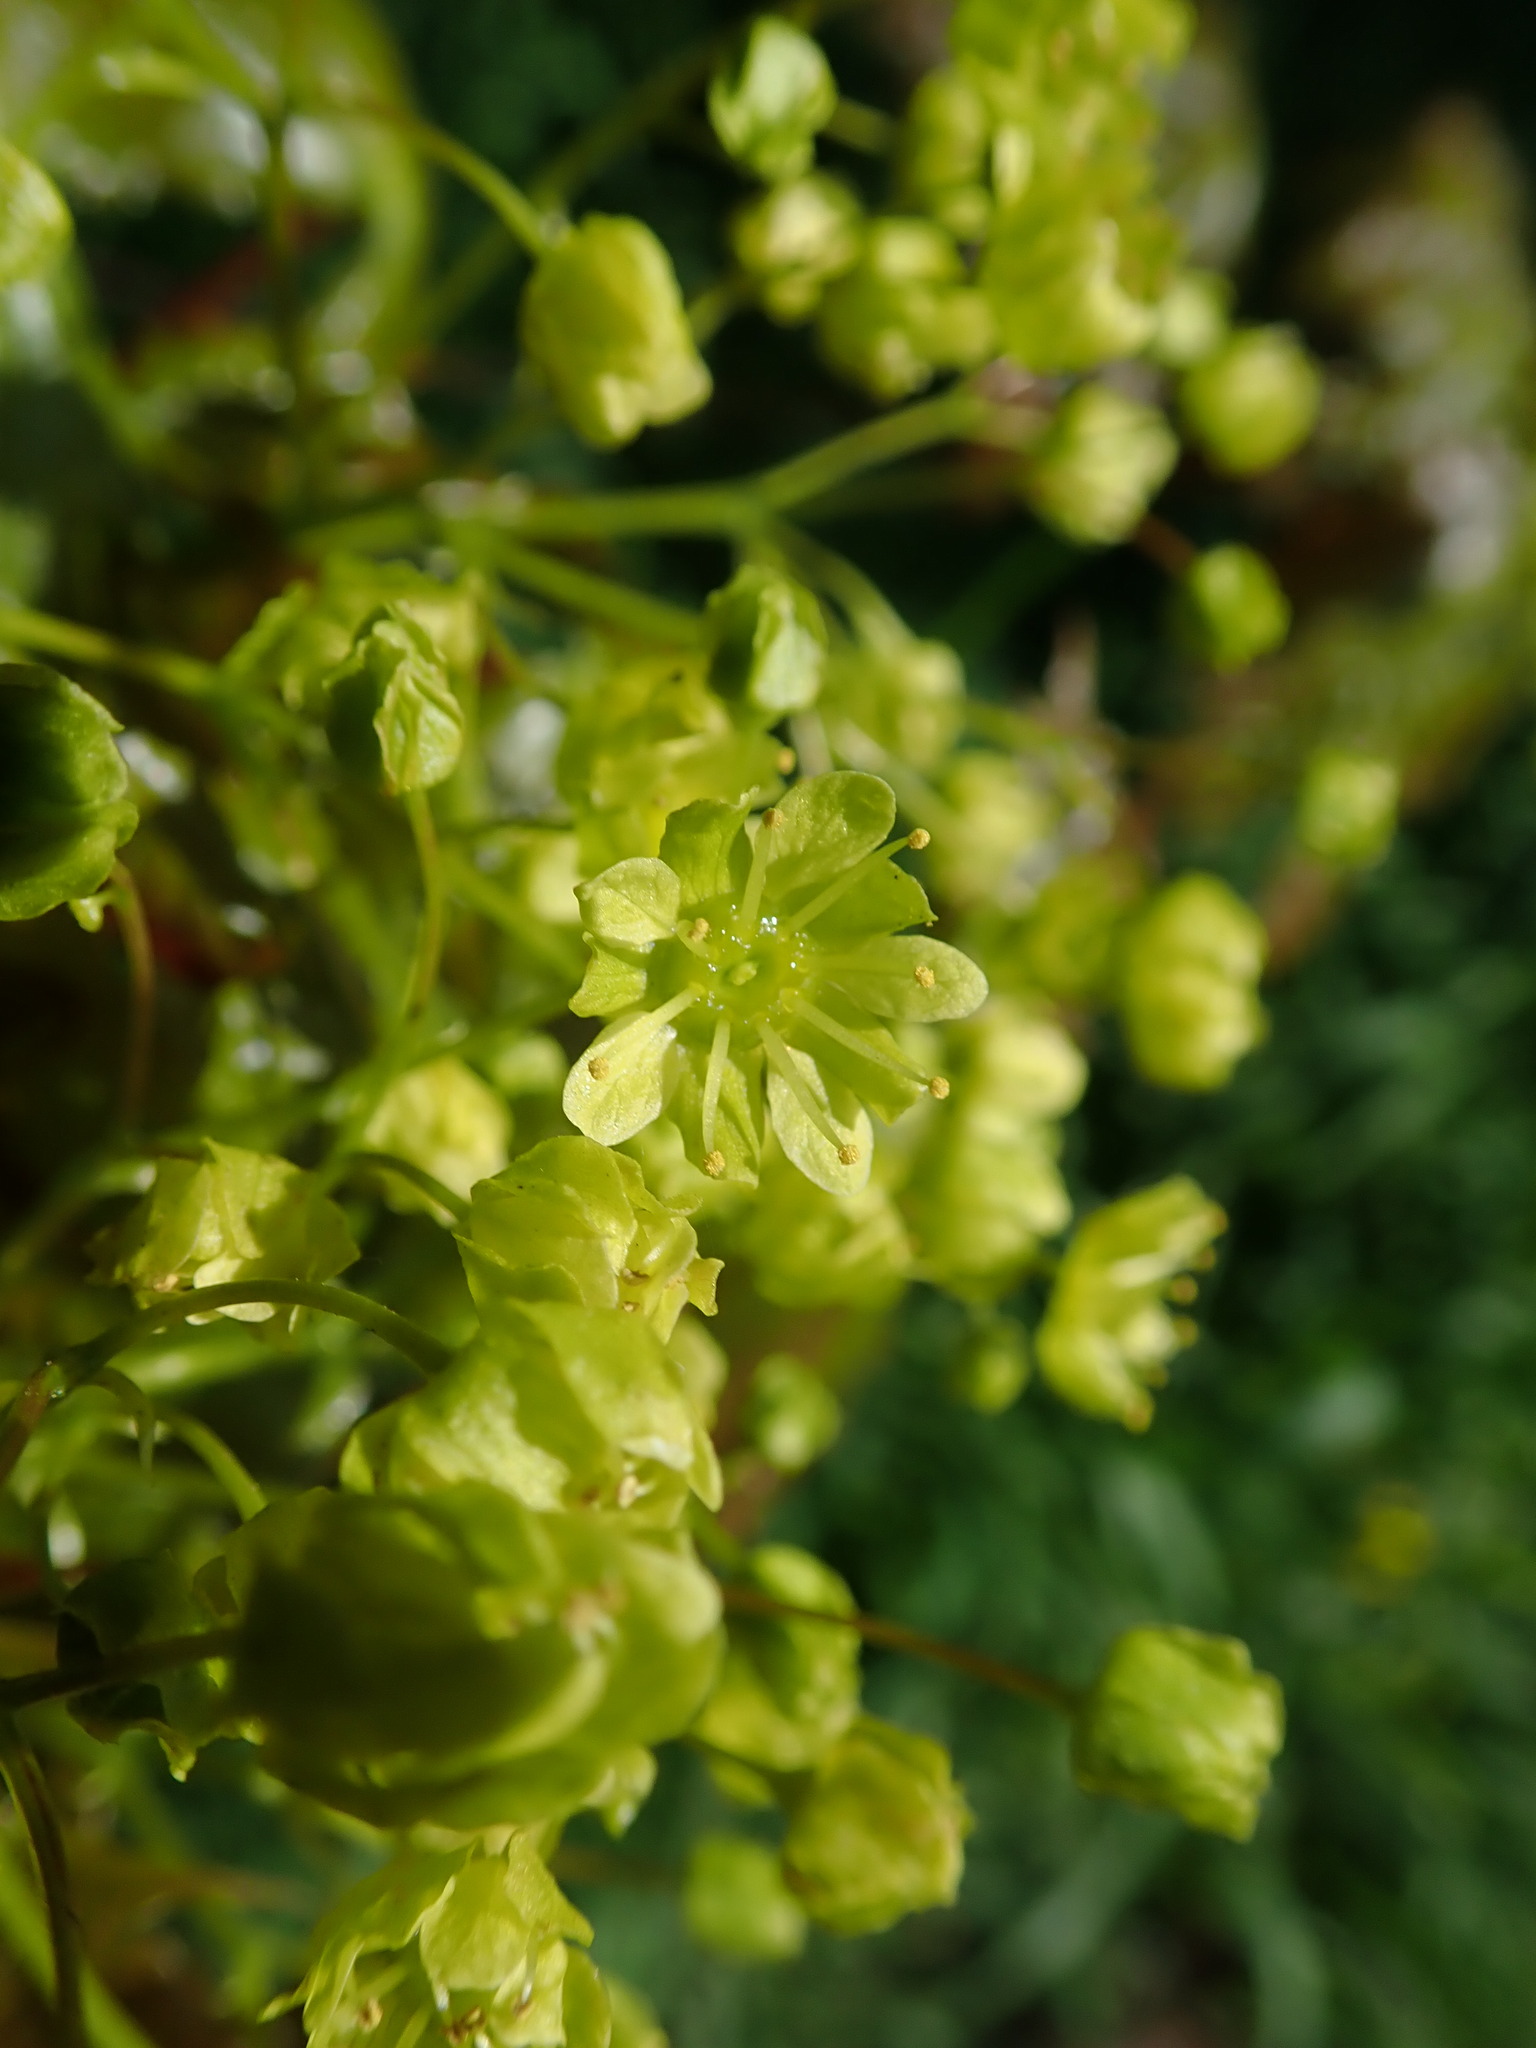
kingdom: Plantae
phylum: Tracheophyta
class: Magnoliopsida
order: Sapindales
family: Sapindaceae
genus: Acer
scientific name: Acer platanoides
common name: Norway maple
